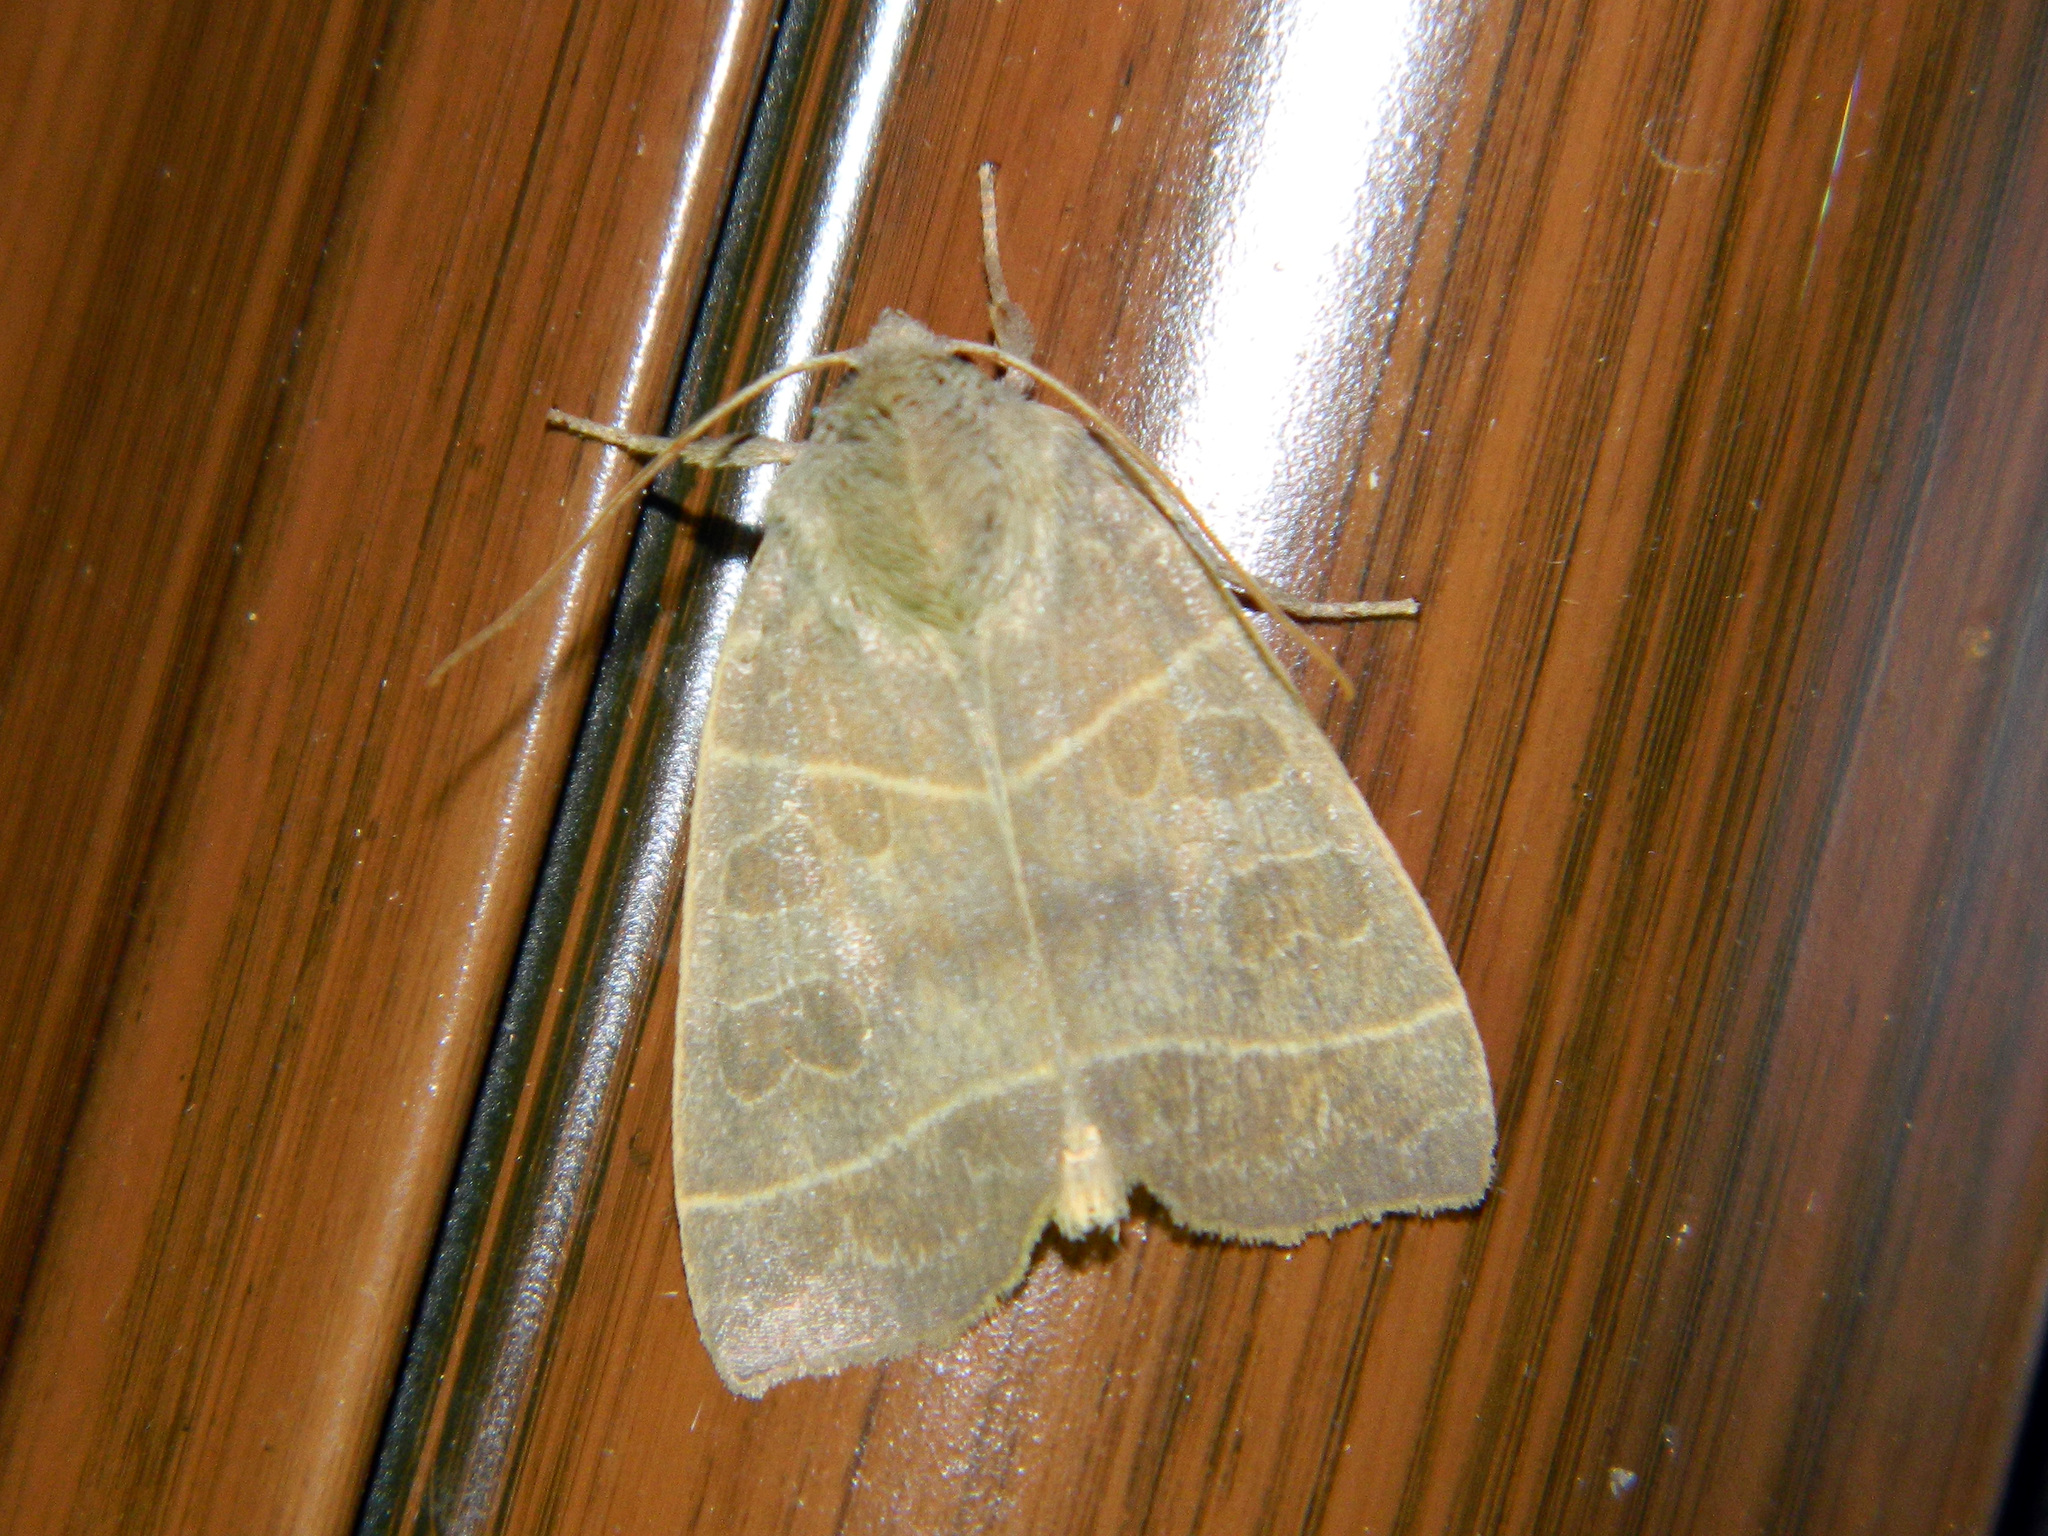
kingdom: Animalia
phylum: Arthropoda
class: Insecta
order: Lepidoptera
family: Noctuidae
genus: Ipimorpha
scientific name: Ipimorpha pleonectusa
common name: Even-lined sallow
